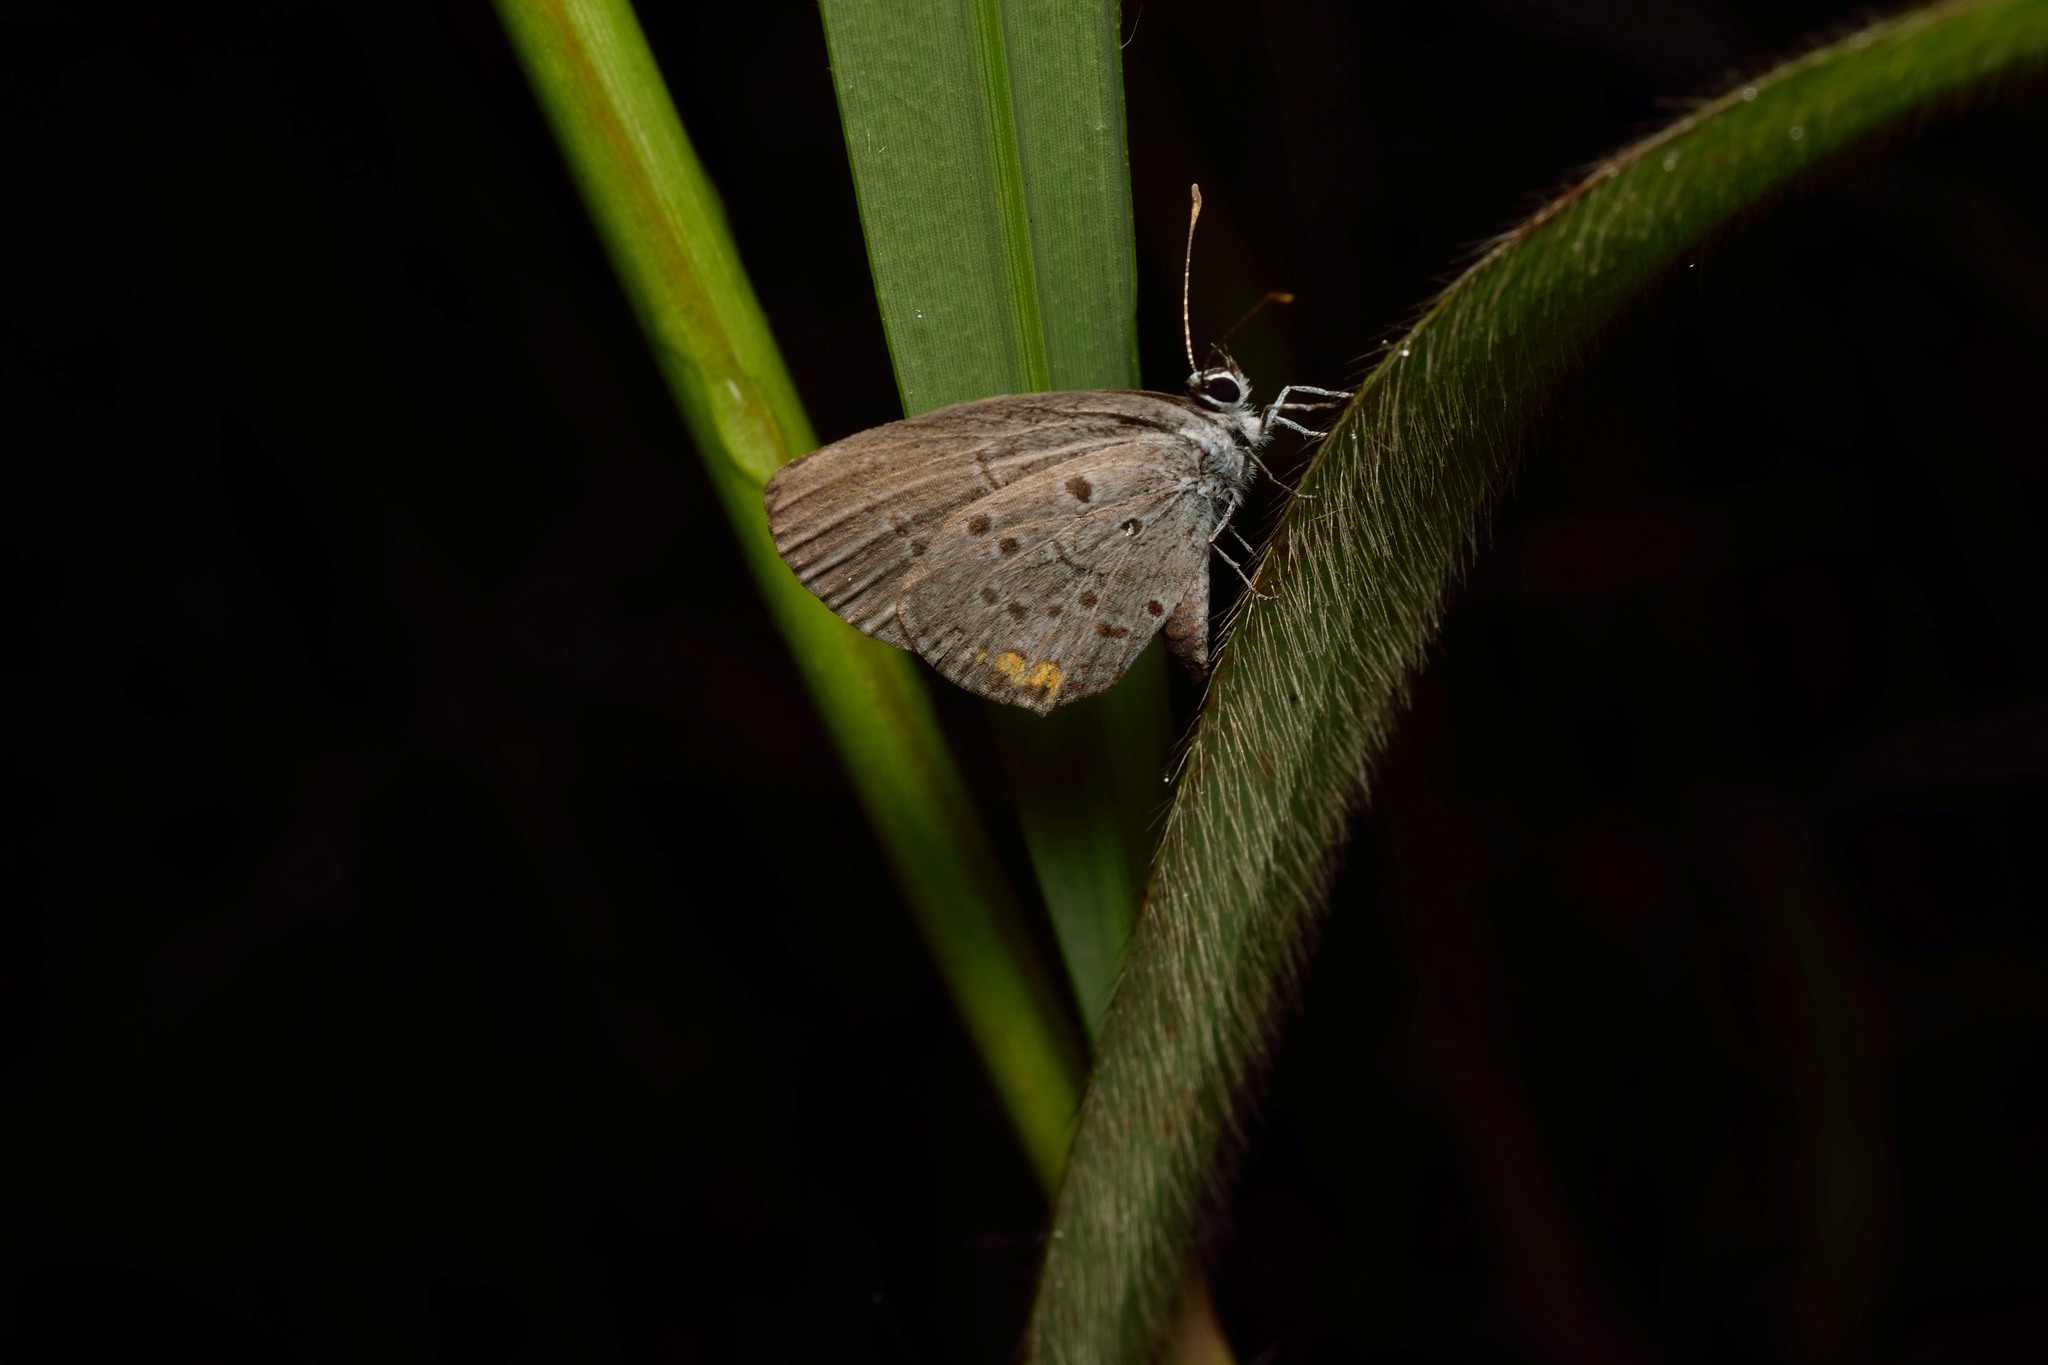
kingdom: Animalia
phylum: Arthropoda
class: Insecta
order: Lepidoptera
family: Lycaenidae
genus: Zizina
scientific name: Zizina otis
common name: Lesser grass blue
